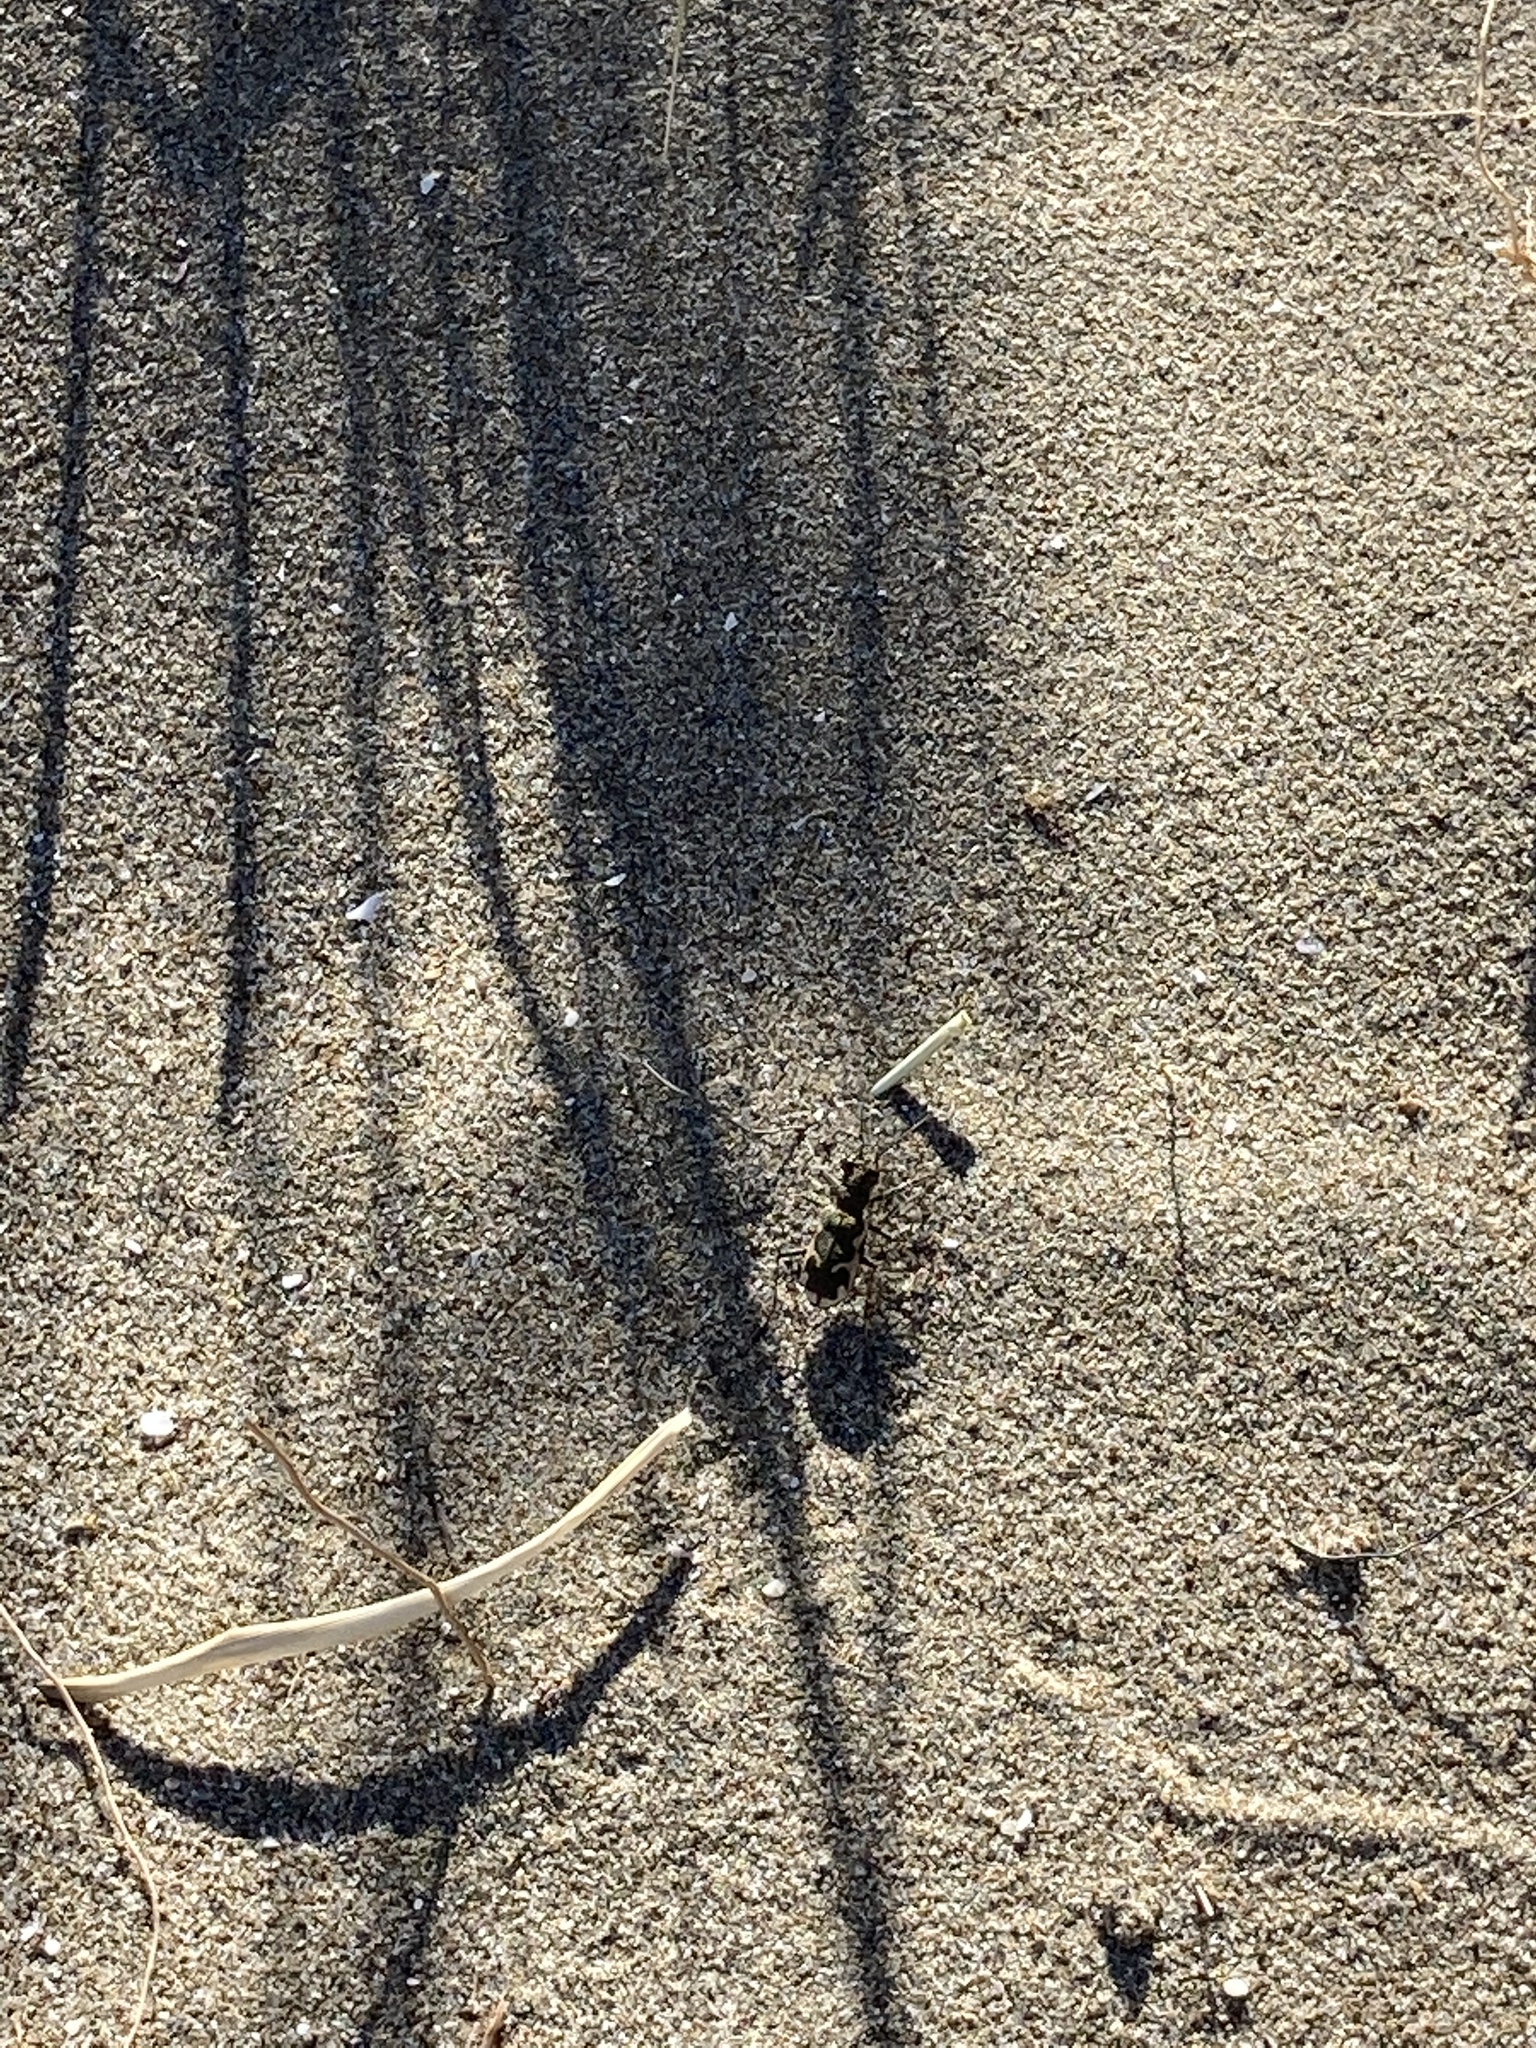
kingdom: Animalia
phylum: Arthropoda
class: Insecta
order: Coleoptera
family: Carabidae
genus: Neocicindela
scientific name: Neocicindela tuberculata
